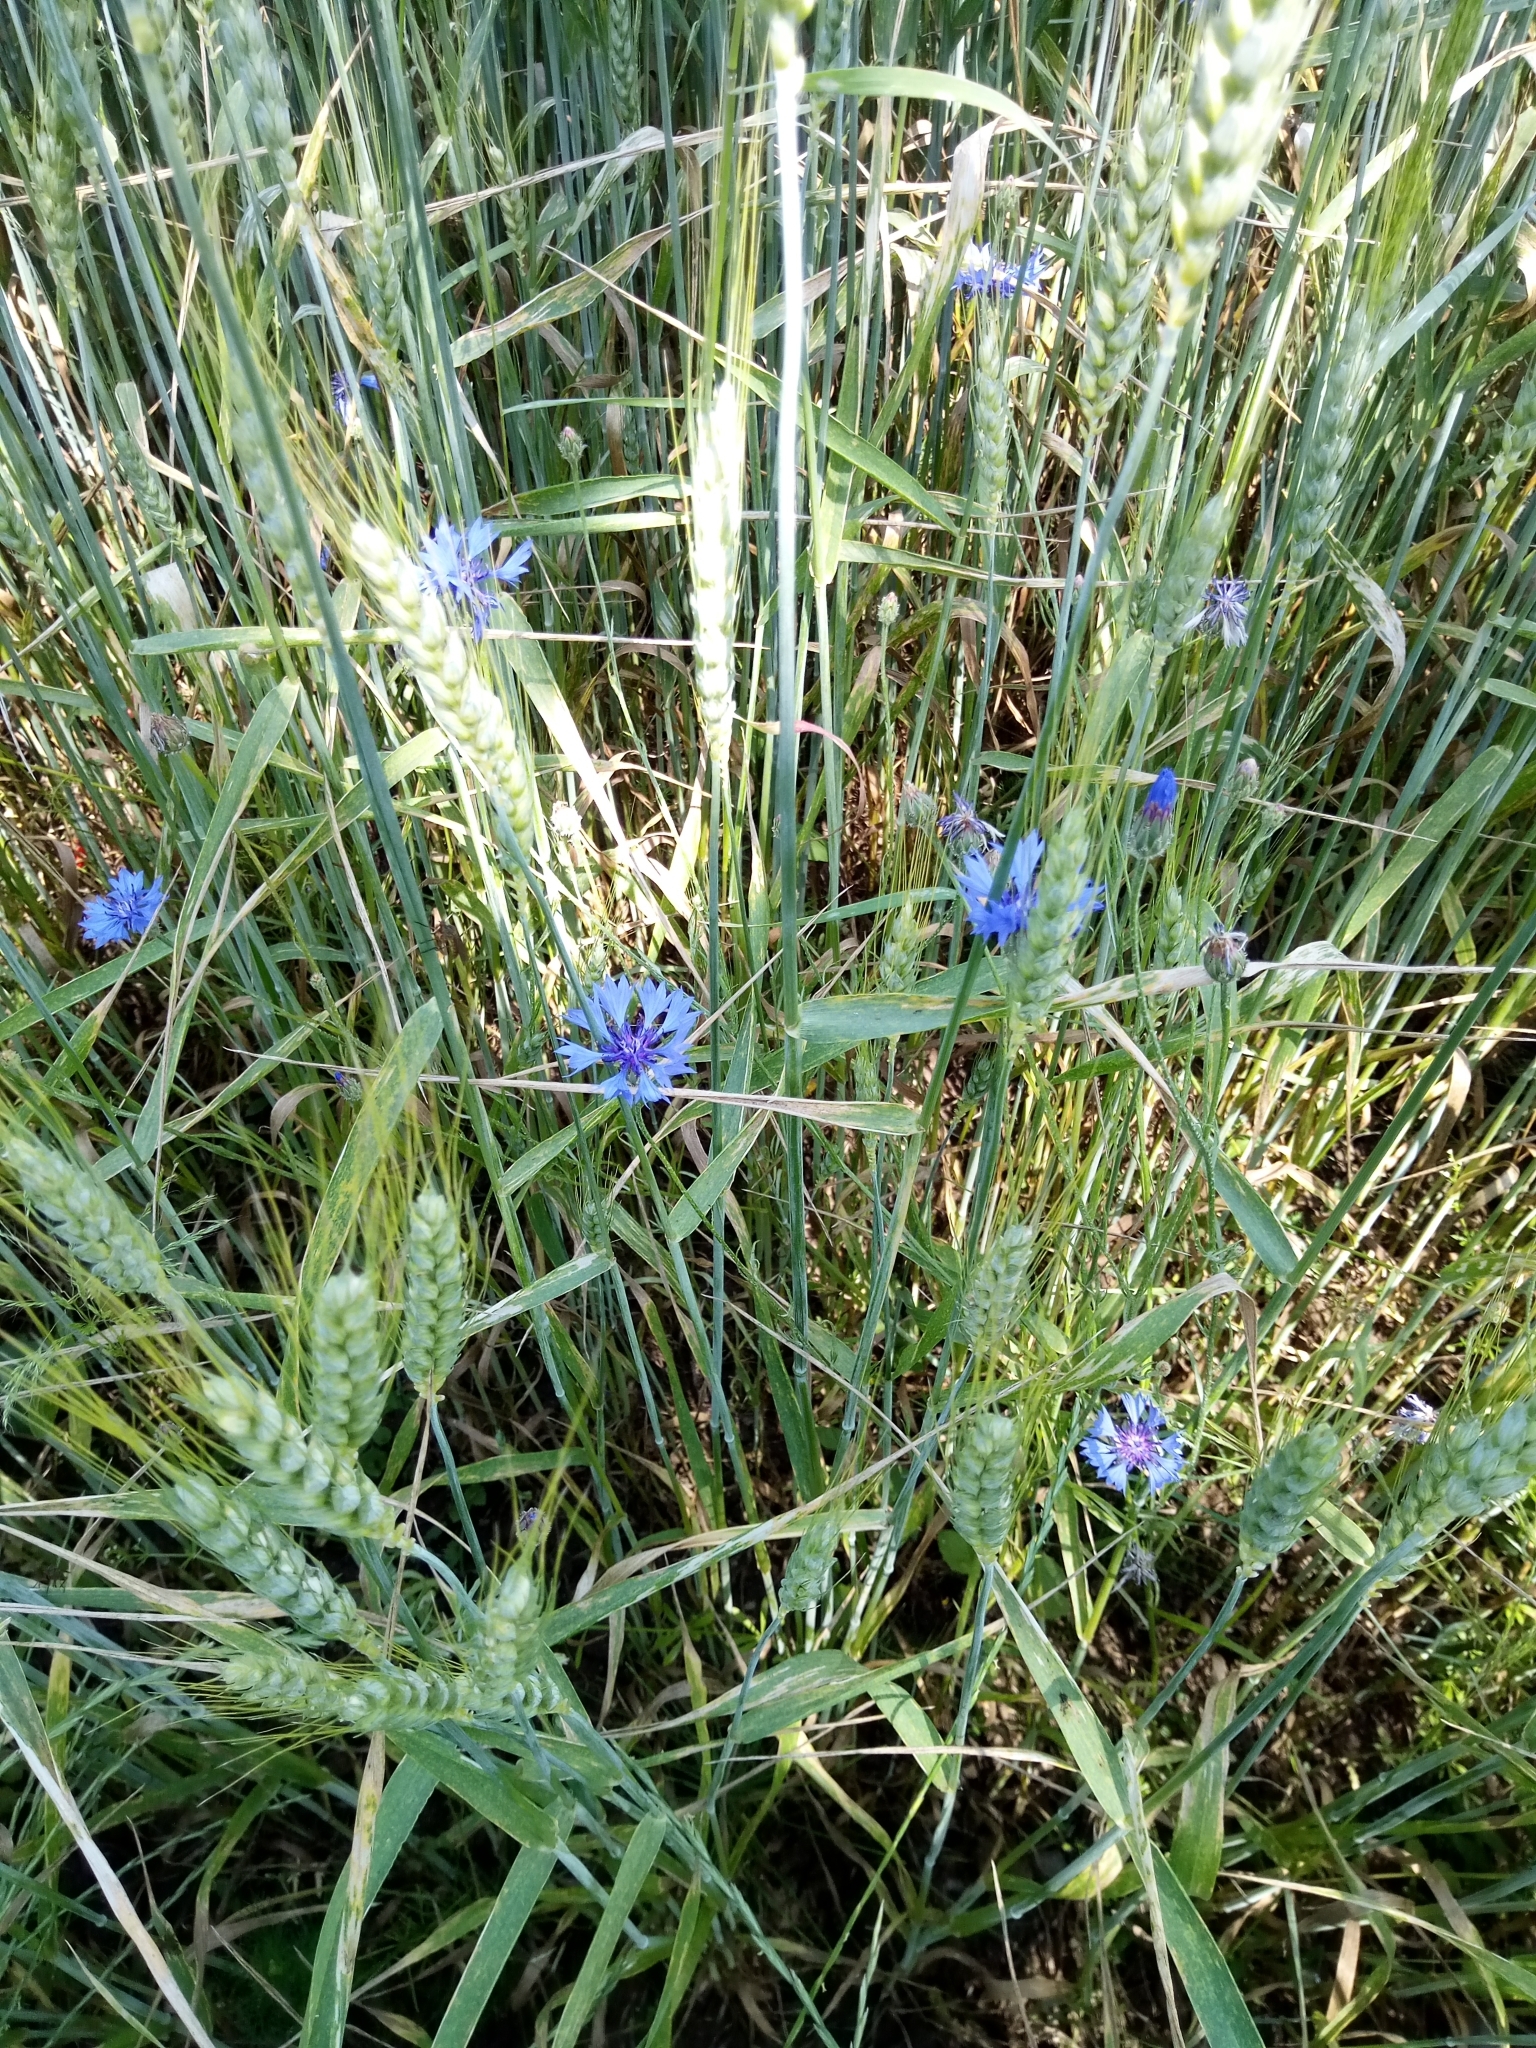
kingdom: Plantae
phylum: Tracheophyta
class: Magnoliopsida
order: Asterales
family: Asteraceae
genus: Centaurea
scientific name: Centaurea cyanus
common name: Cornflower
